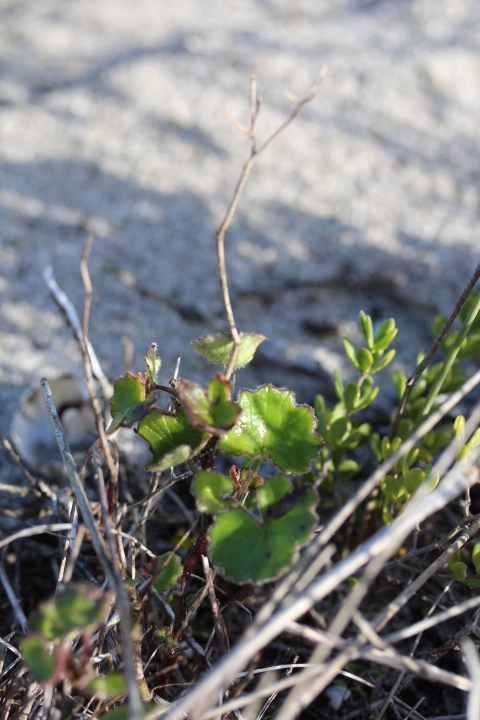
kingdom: Plantae
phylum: Tracheophyta
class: Magnoliopsida
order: Asterales
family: Asteraceae
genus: Cineraria
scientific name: Cineraria geifolia
